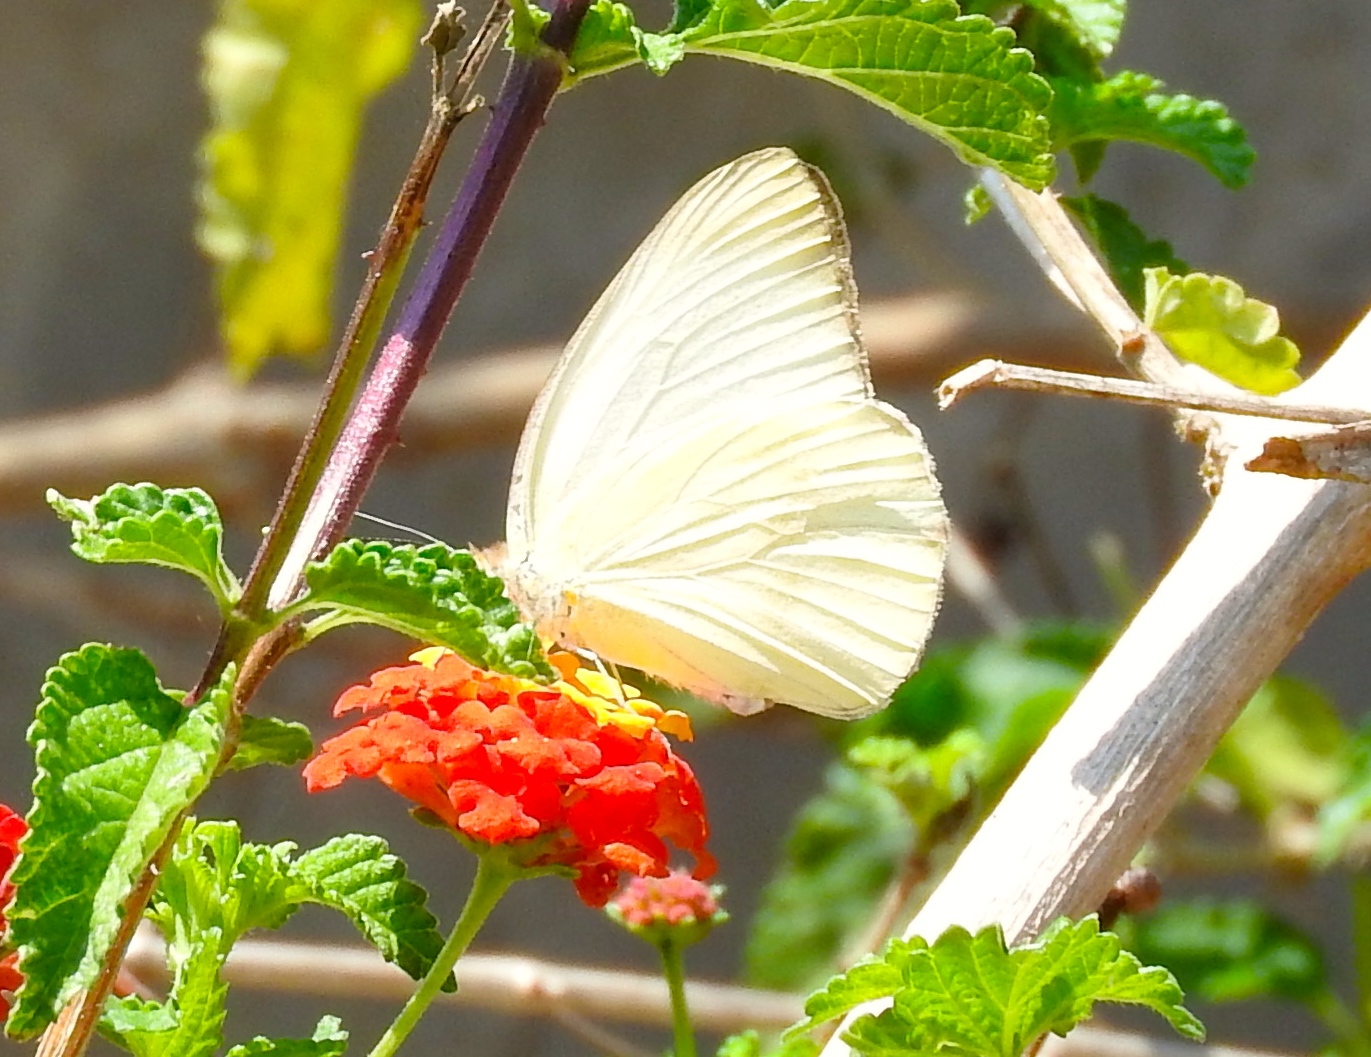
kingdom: Animalia
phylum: Arthropoda
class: Insecta
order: Lepidoptera
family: Pieridae
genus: Ascia
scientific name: Ascia monuste
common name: Great southern white
